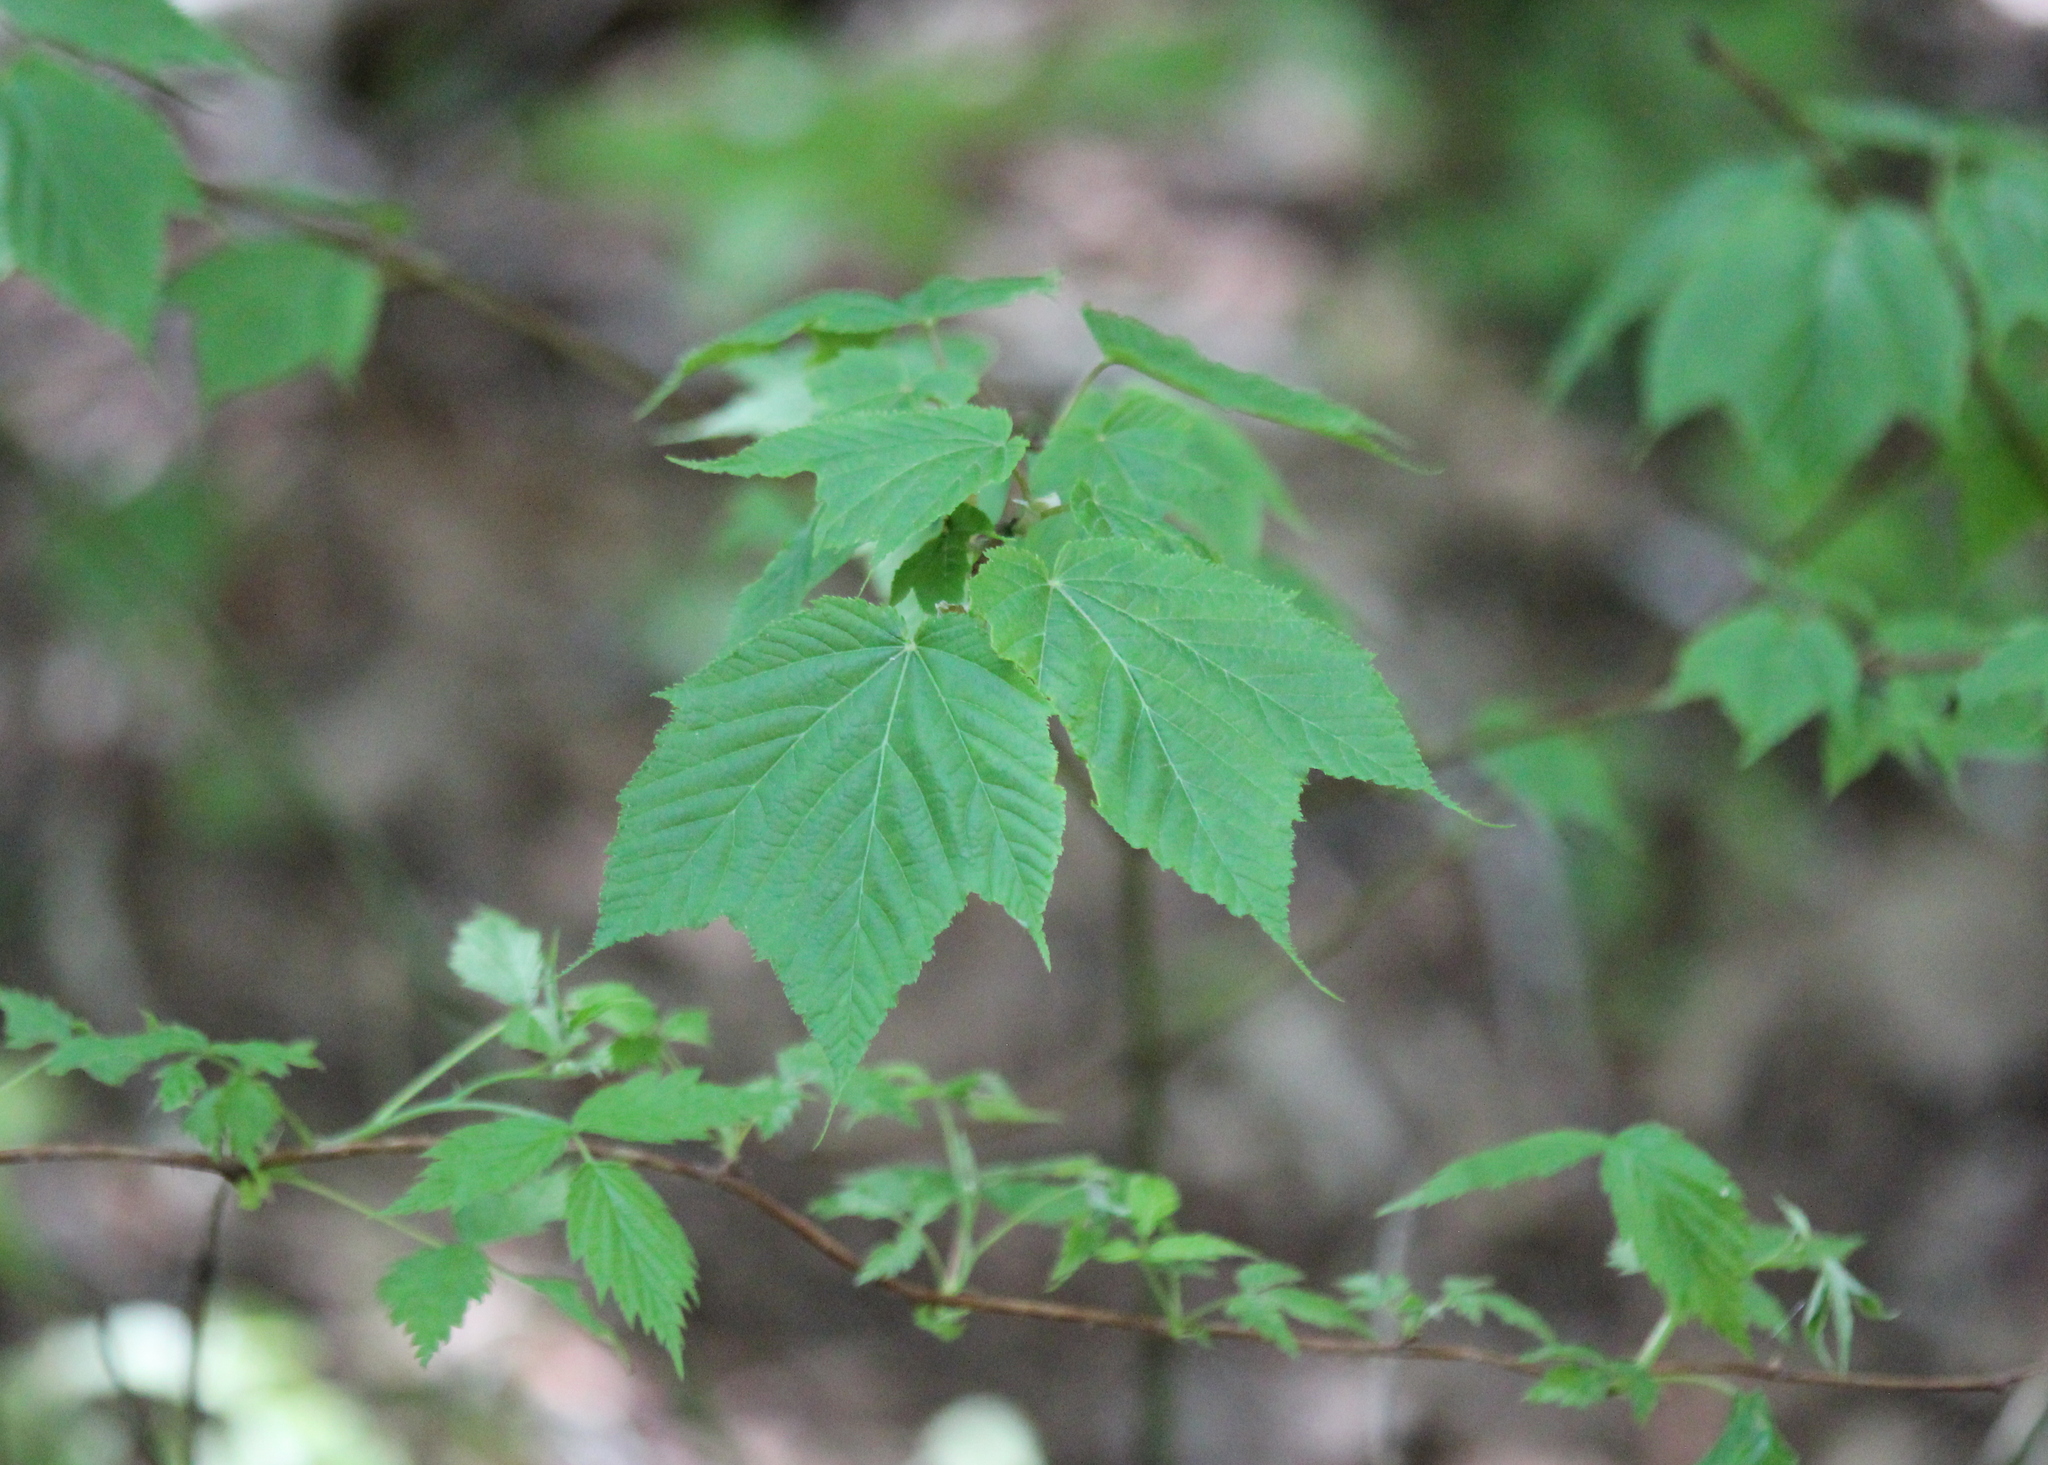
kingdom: Plantae
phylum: Tracheophyta
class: Magnoliopsida
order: Sapindales
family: Sapindaceae
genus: Acer
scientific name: Acer pensylvanicum
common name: Moosewood
